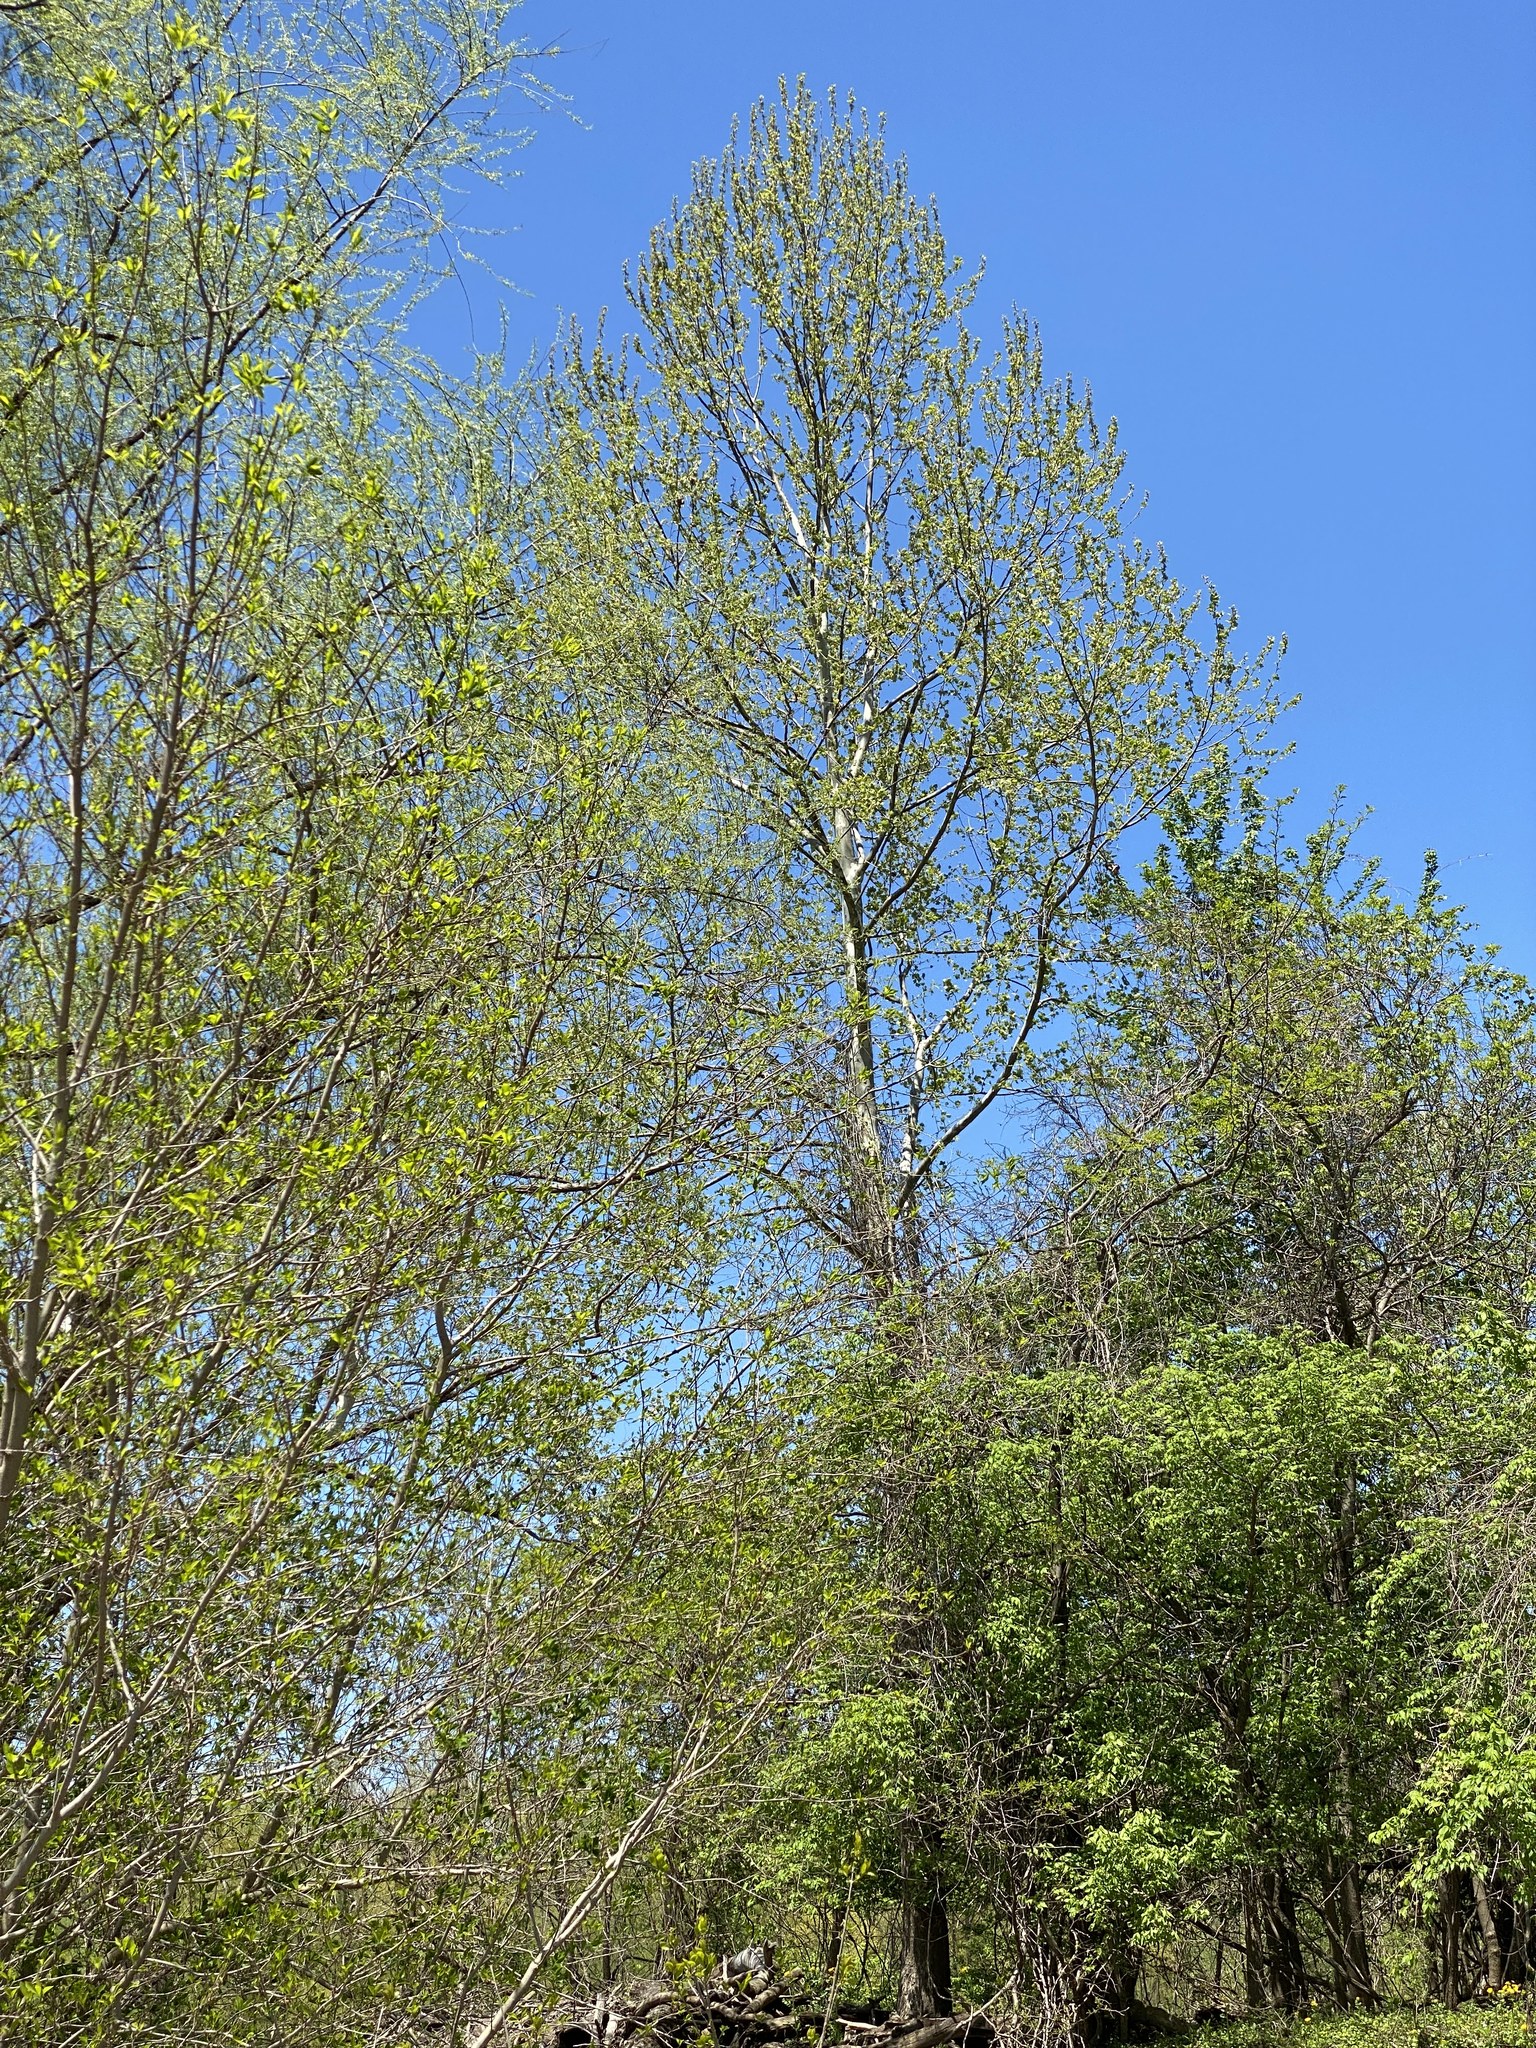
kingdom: Plantae
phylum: Tracheophyta
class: Magnoliopsida
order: Proteales
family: Platanaceae
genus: Platanus
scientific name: Platanus occidentalis
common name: American sycamore
